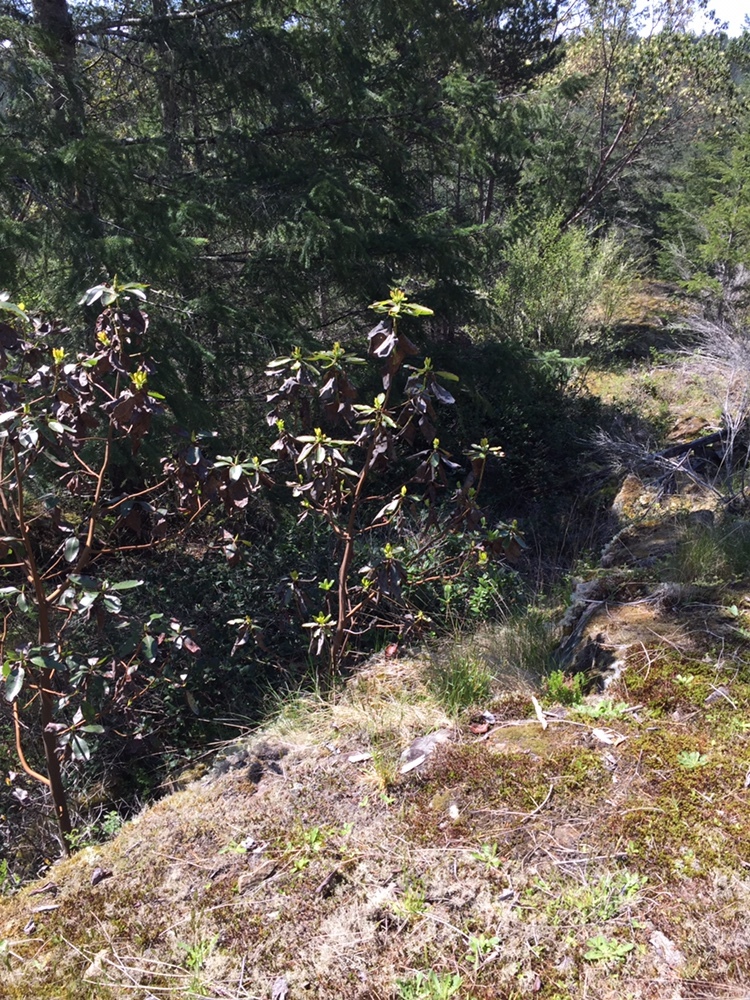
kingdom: Plantae
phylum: Tracheophyta
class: Magnoliopsida
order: Ericales
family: Ericaceae
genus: Arbutus
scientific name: Arbutus menziesii
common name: Pacific madrone
